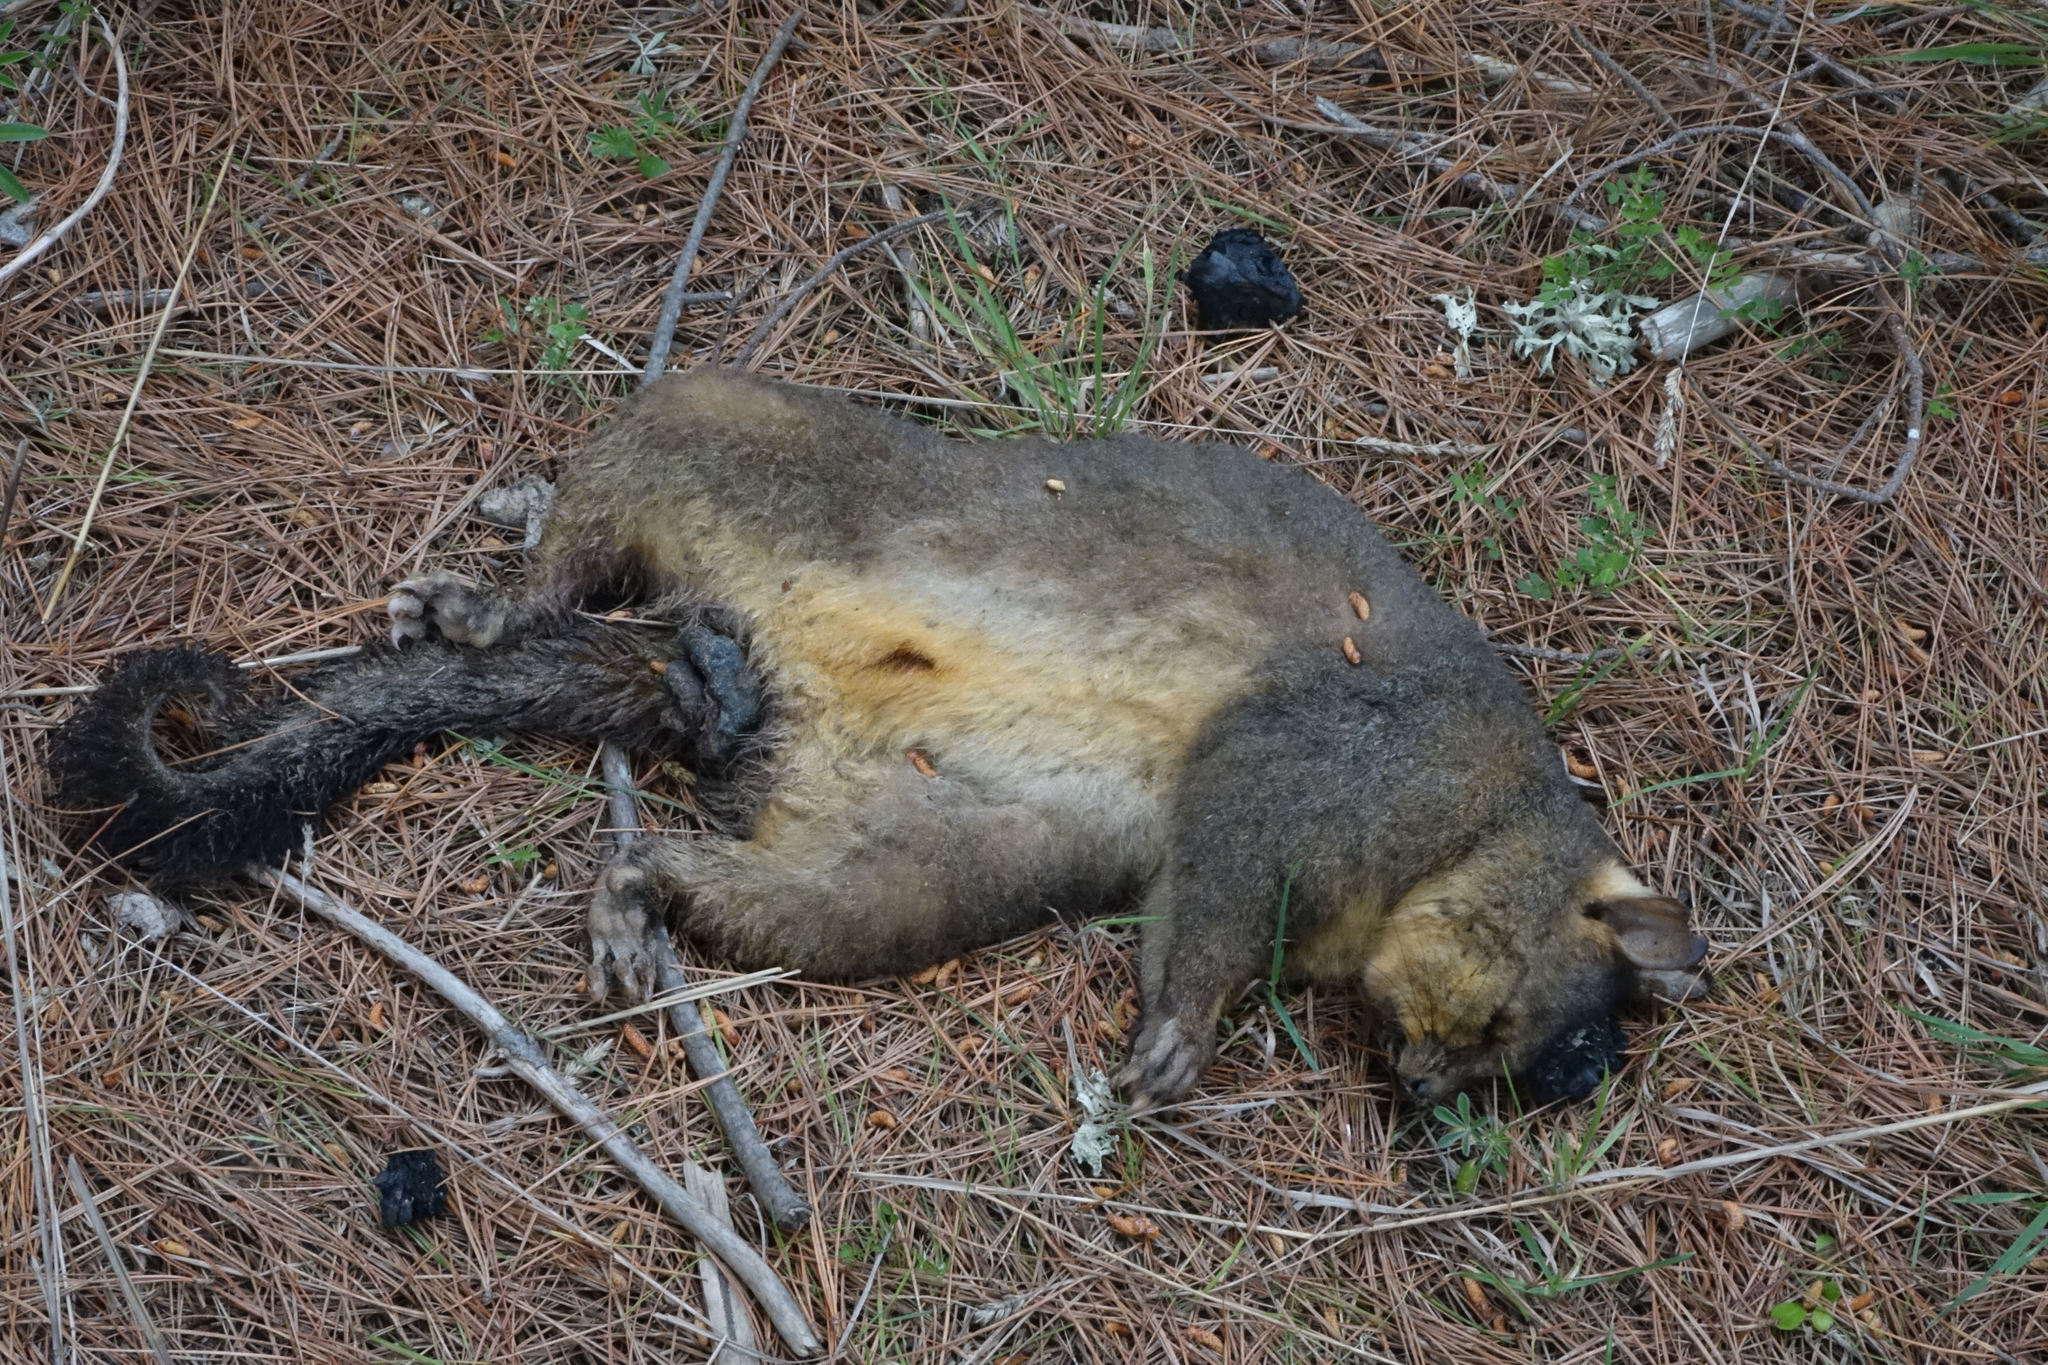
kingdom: Animalia
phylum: Chordata
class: Mammalia
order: Diprotodontia
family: Phalangeridae
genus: Trichosurus
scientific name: Trichosurus vulpecula
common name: Common brushtail
